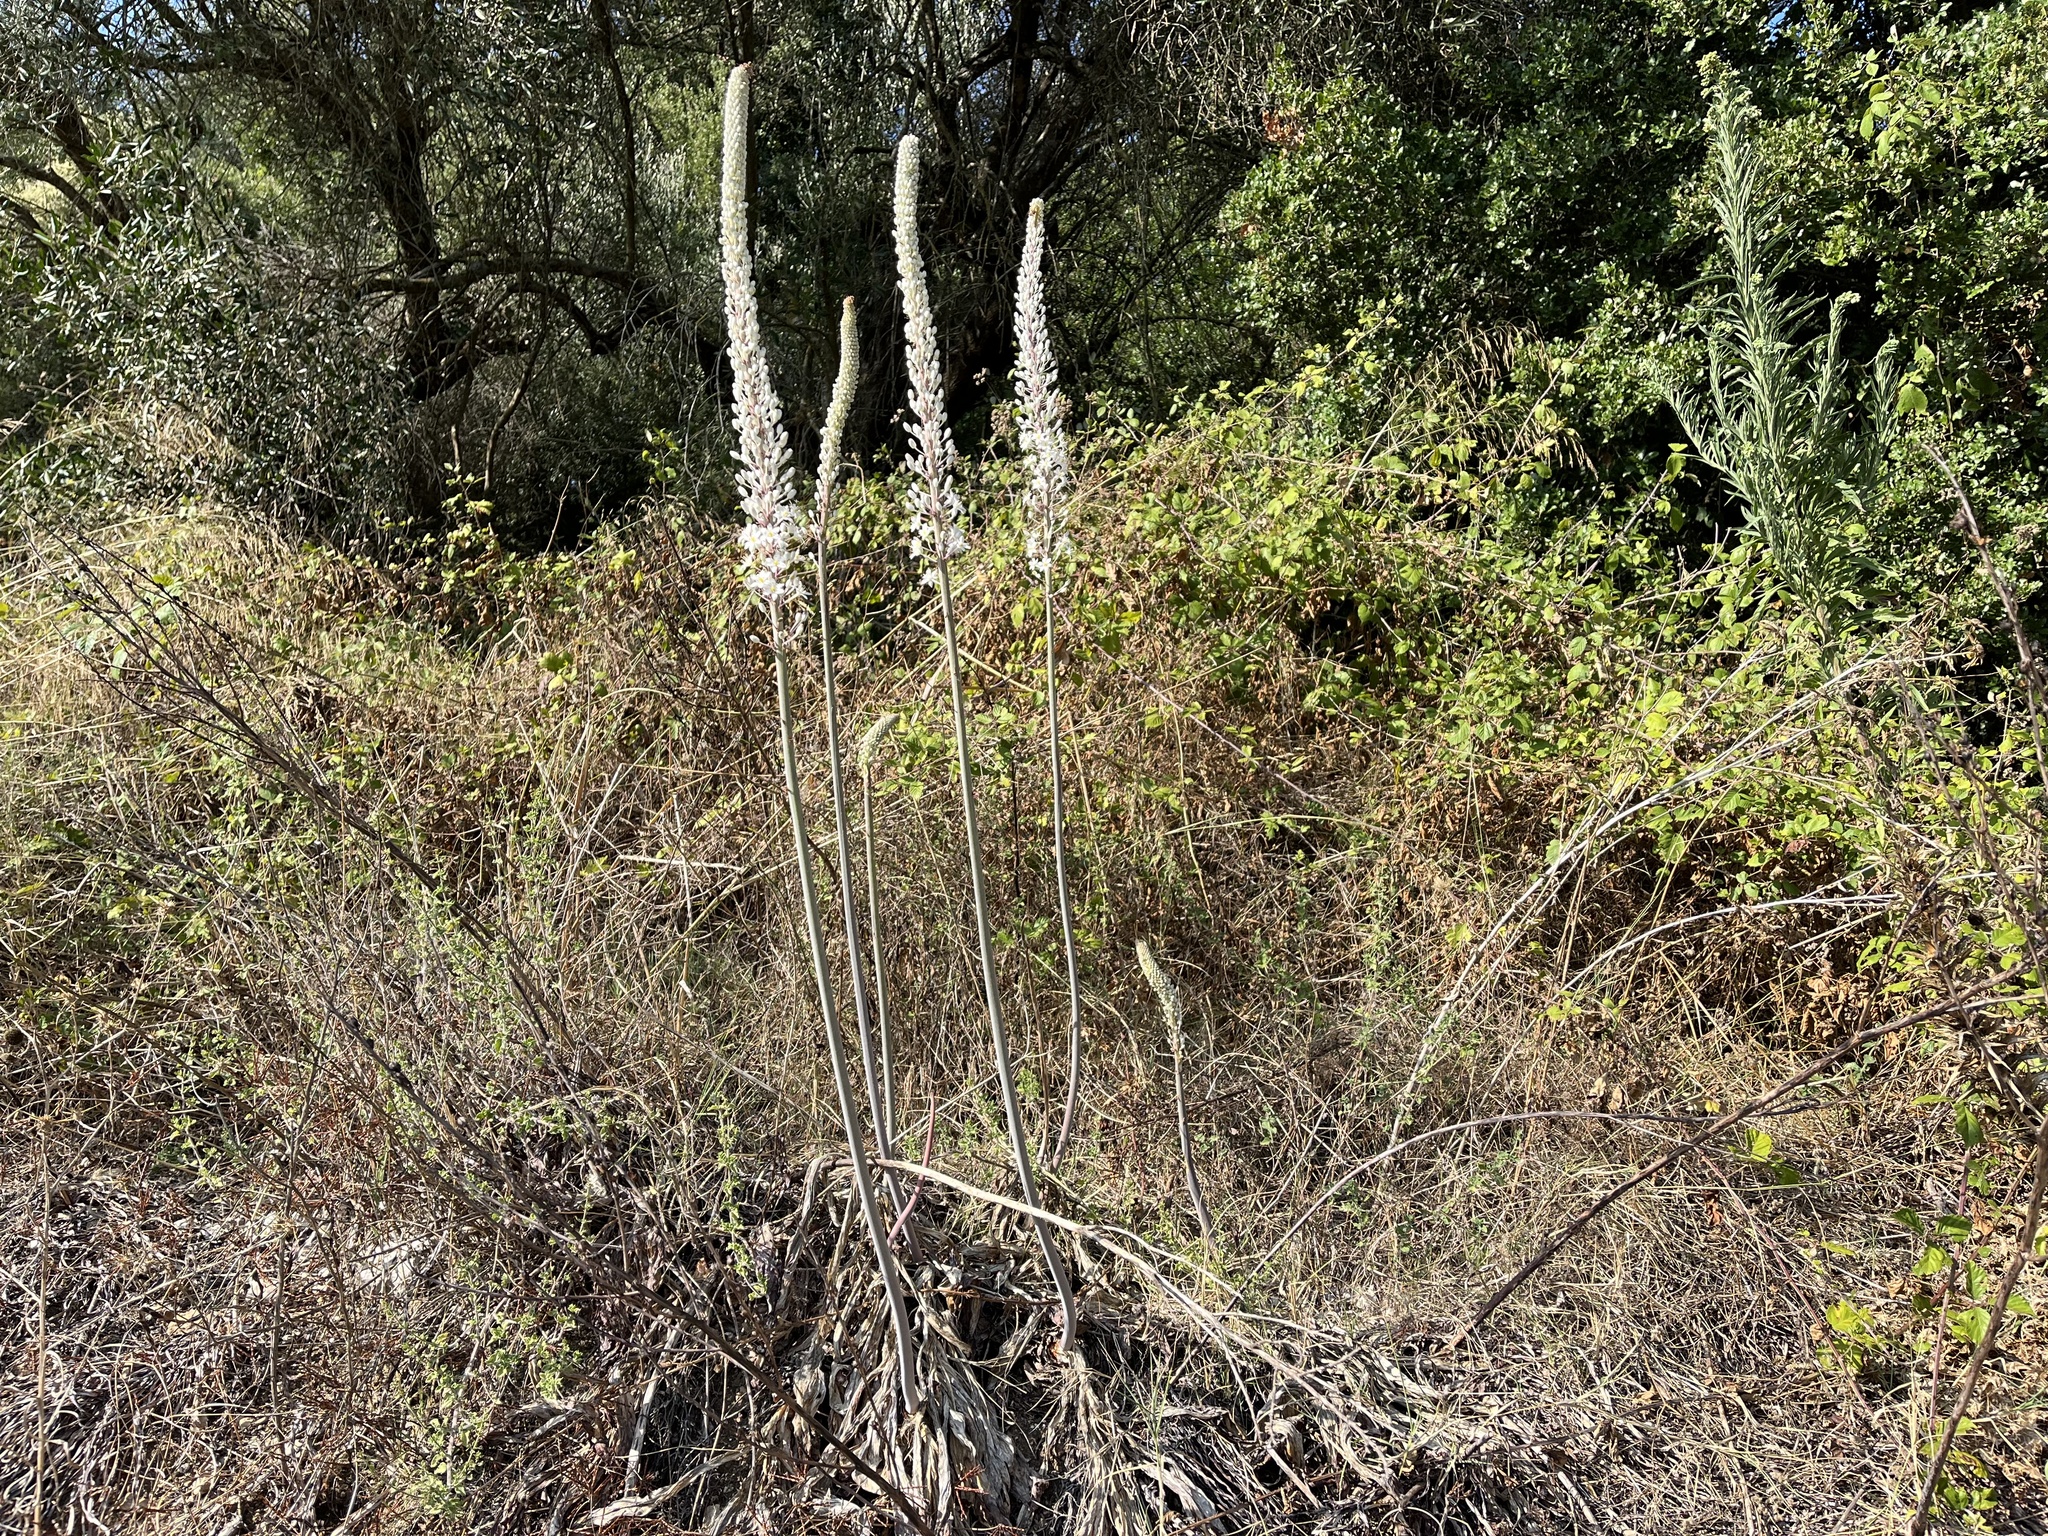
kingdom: Plantae
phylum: Tracheophyta
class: Liliopsida
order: Asparagales
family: Asparagaceae
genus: Drimia
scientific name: Drimia numidica
